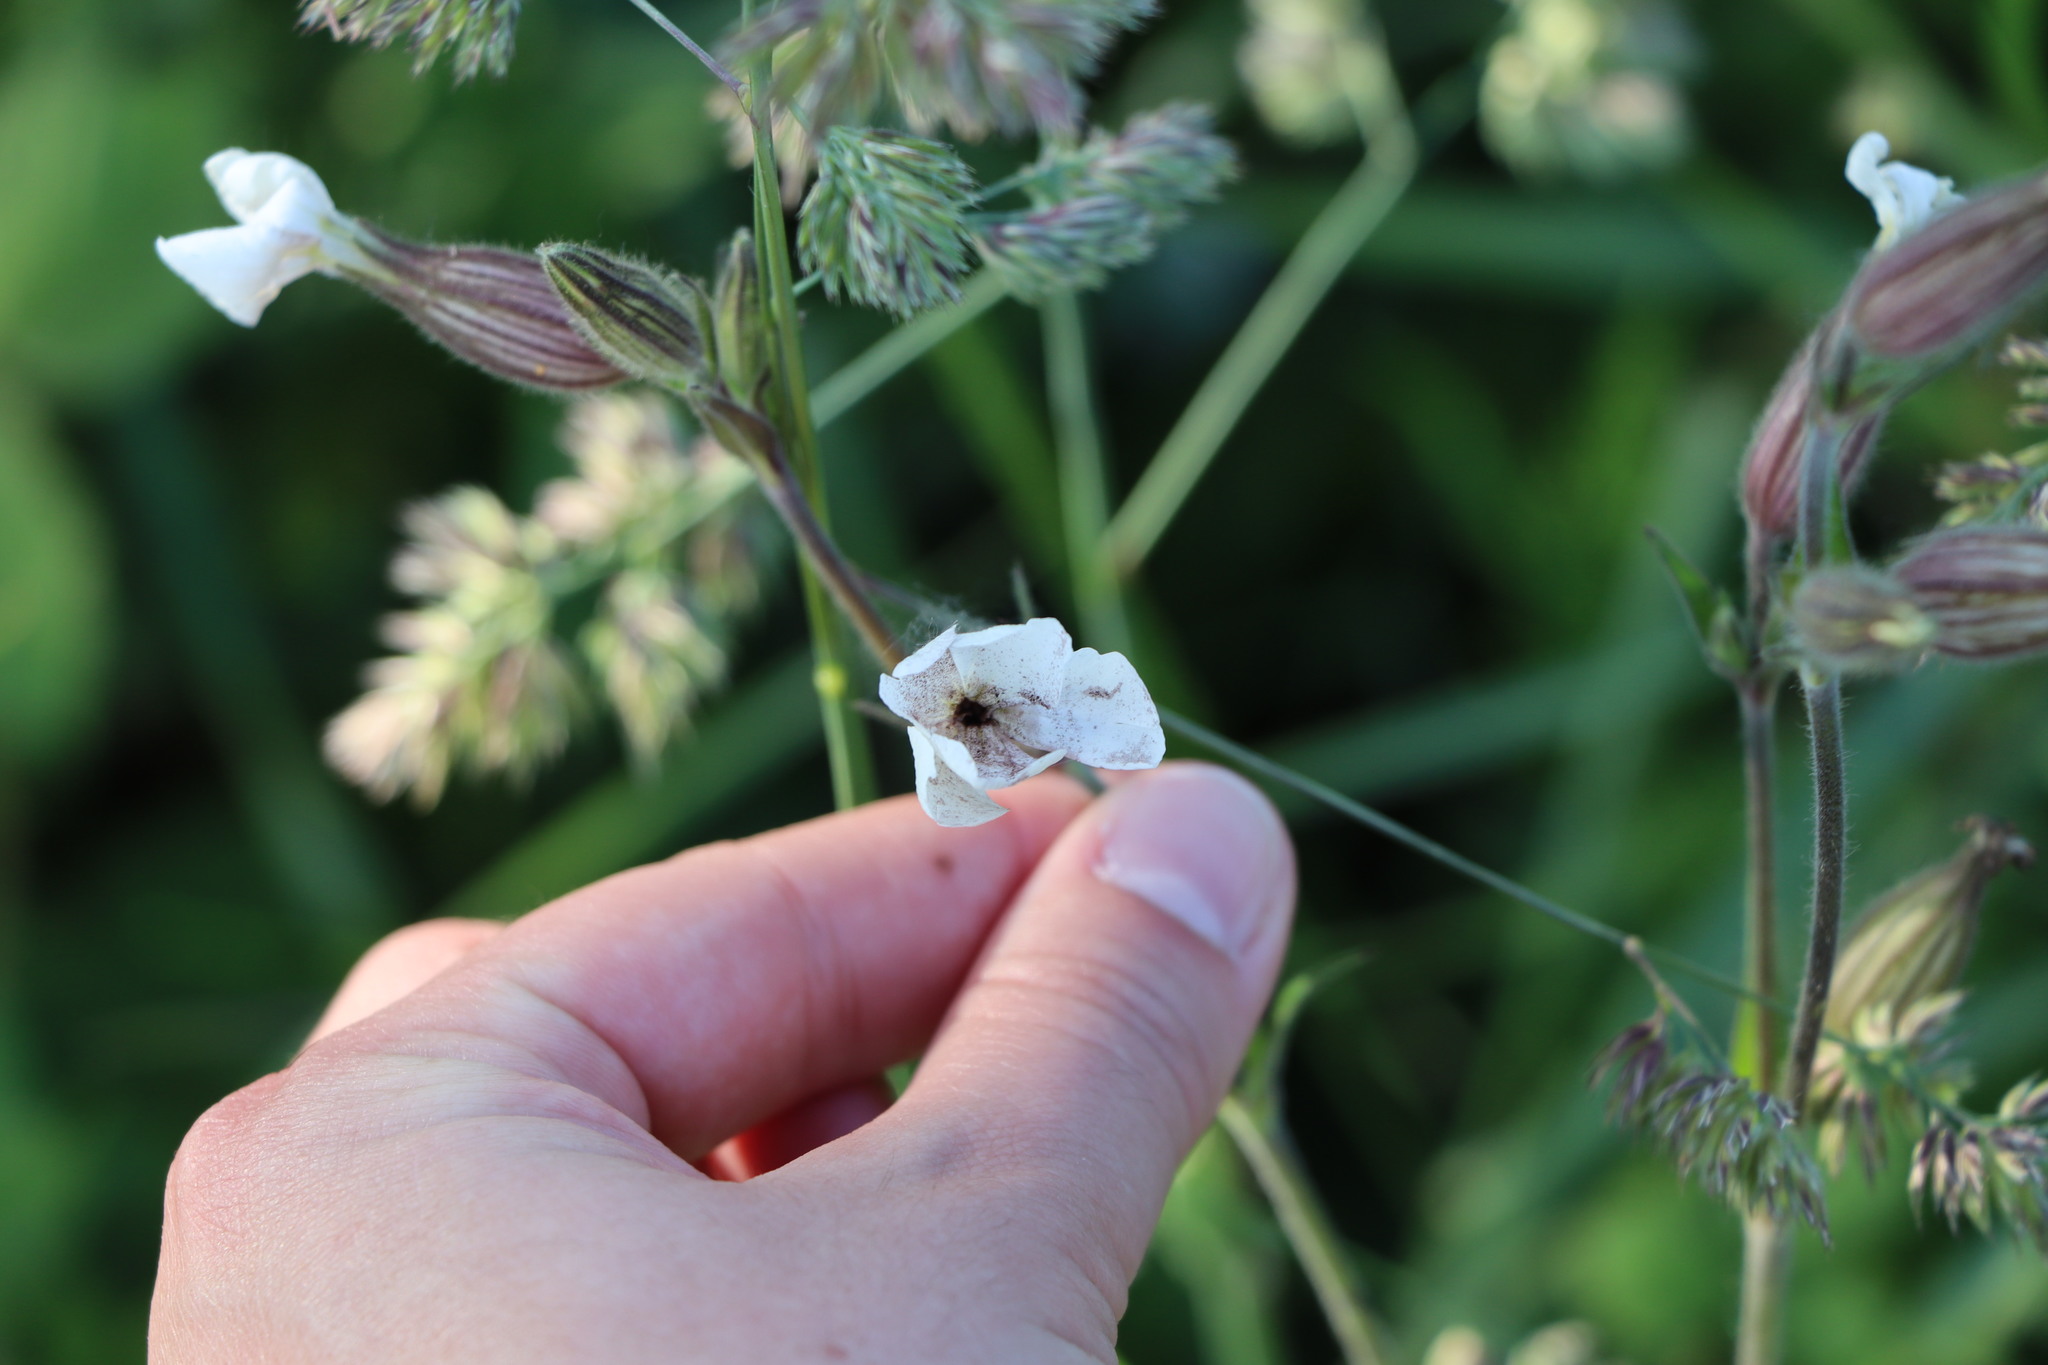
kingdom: Plantae
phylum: Tracheophyta
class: Magnoliopsida
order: Caryophyllales
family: Caryophyllaceae
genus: Silene
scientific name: Silene latifolia
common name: White campion
